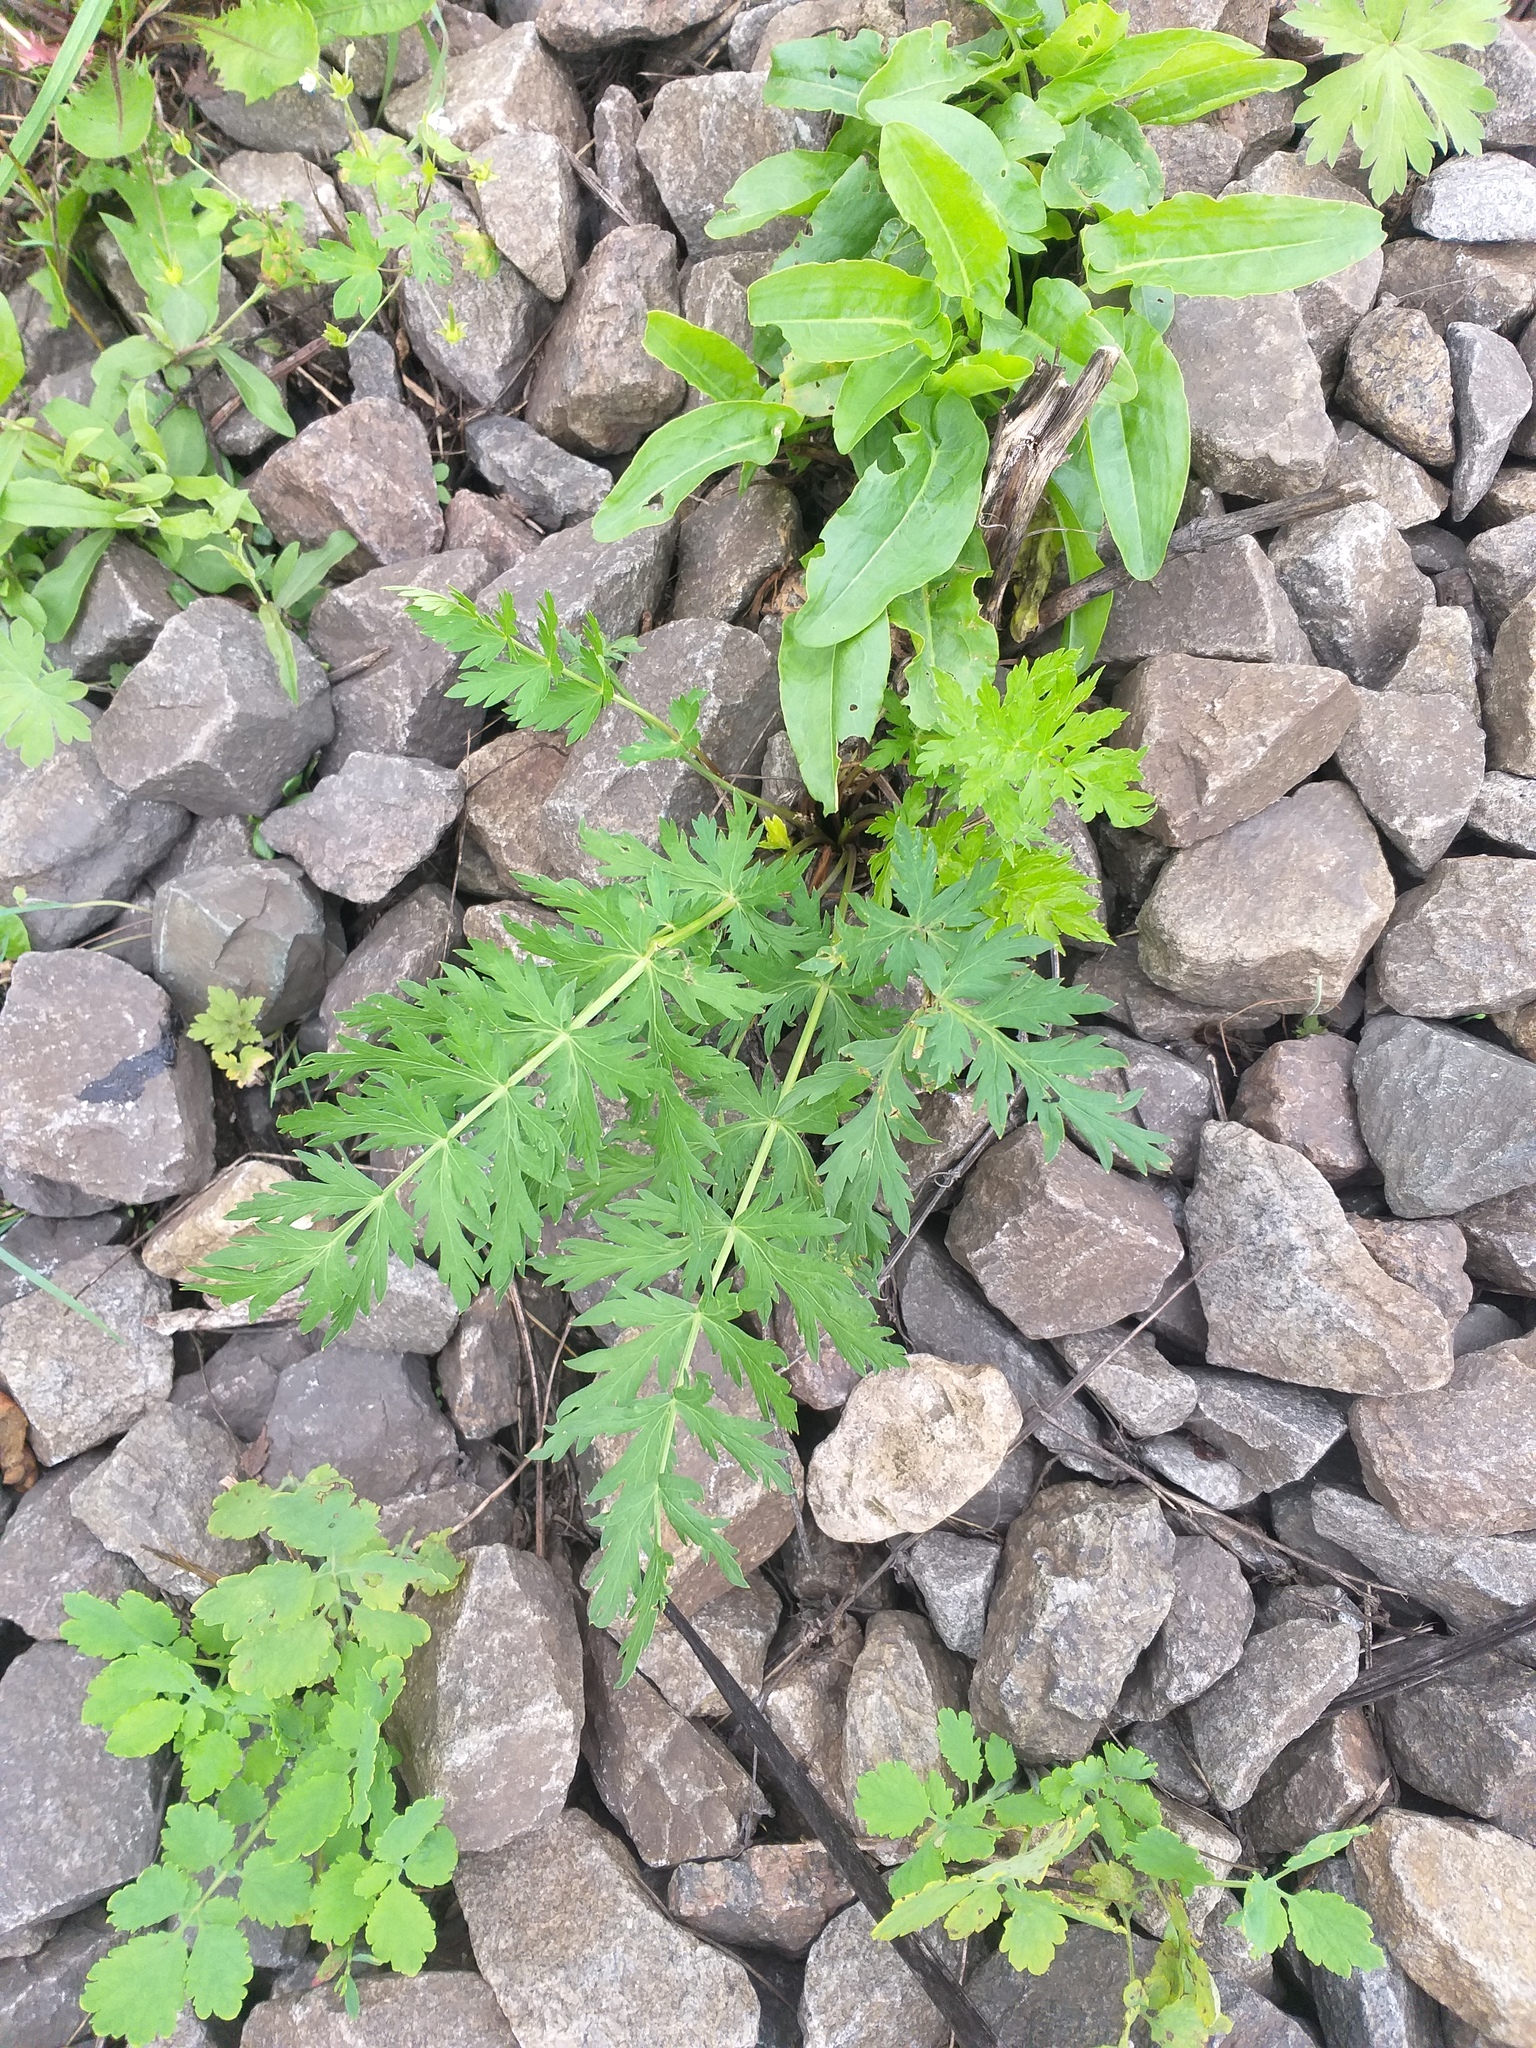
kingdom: Plantae
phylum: Tracheophyta
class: Magnoliopsida
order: Apiales
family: Apiaceae
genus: Seseli
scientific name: Seseli libanotis
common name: Mooncarrot
